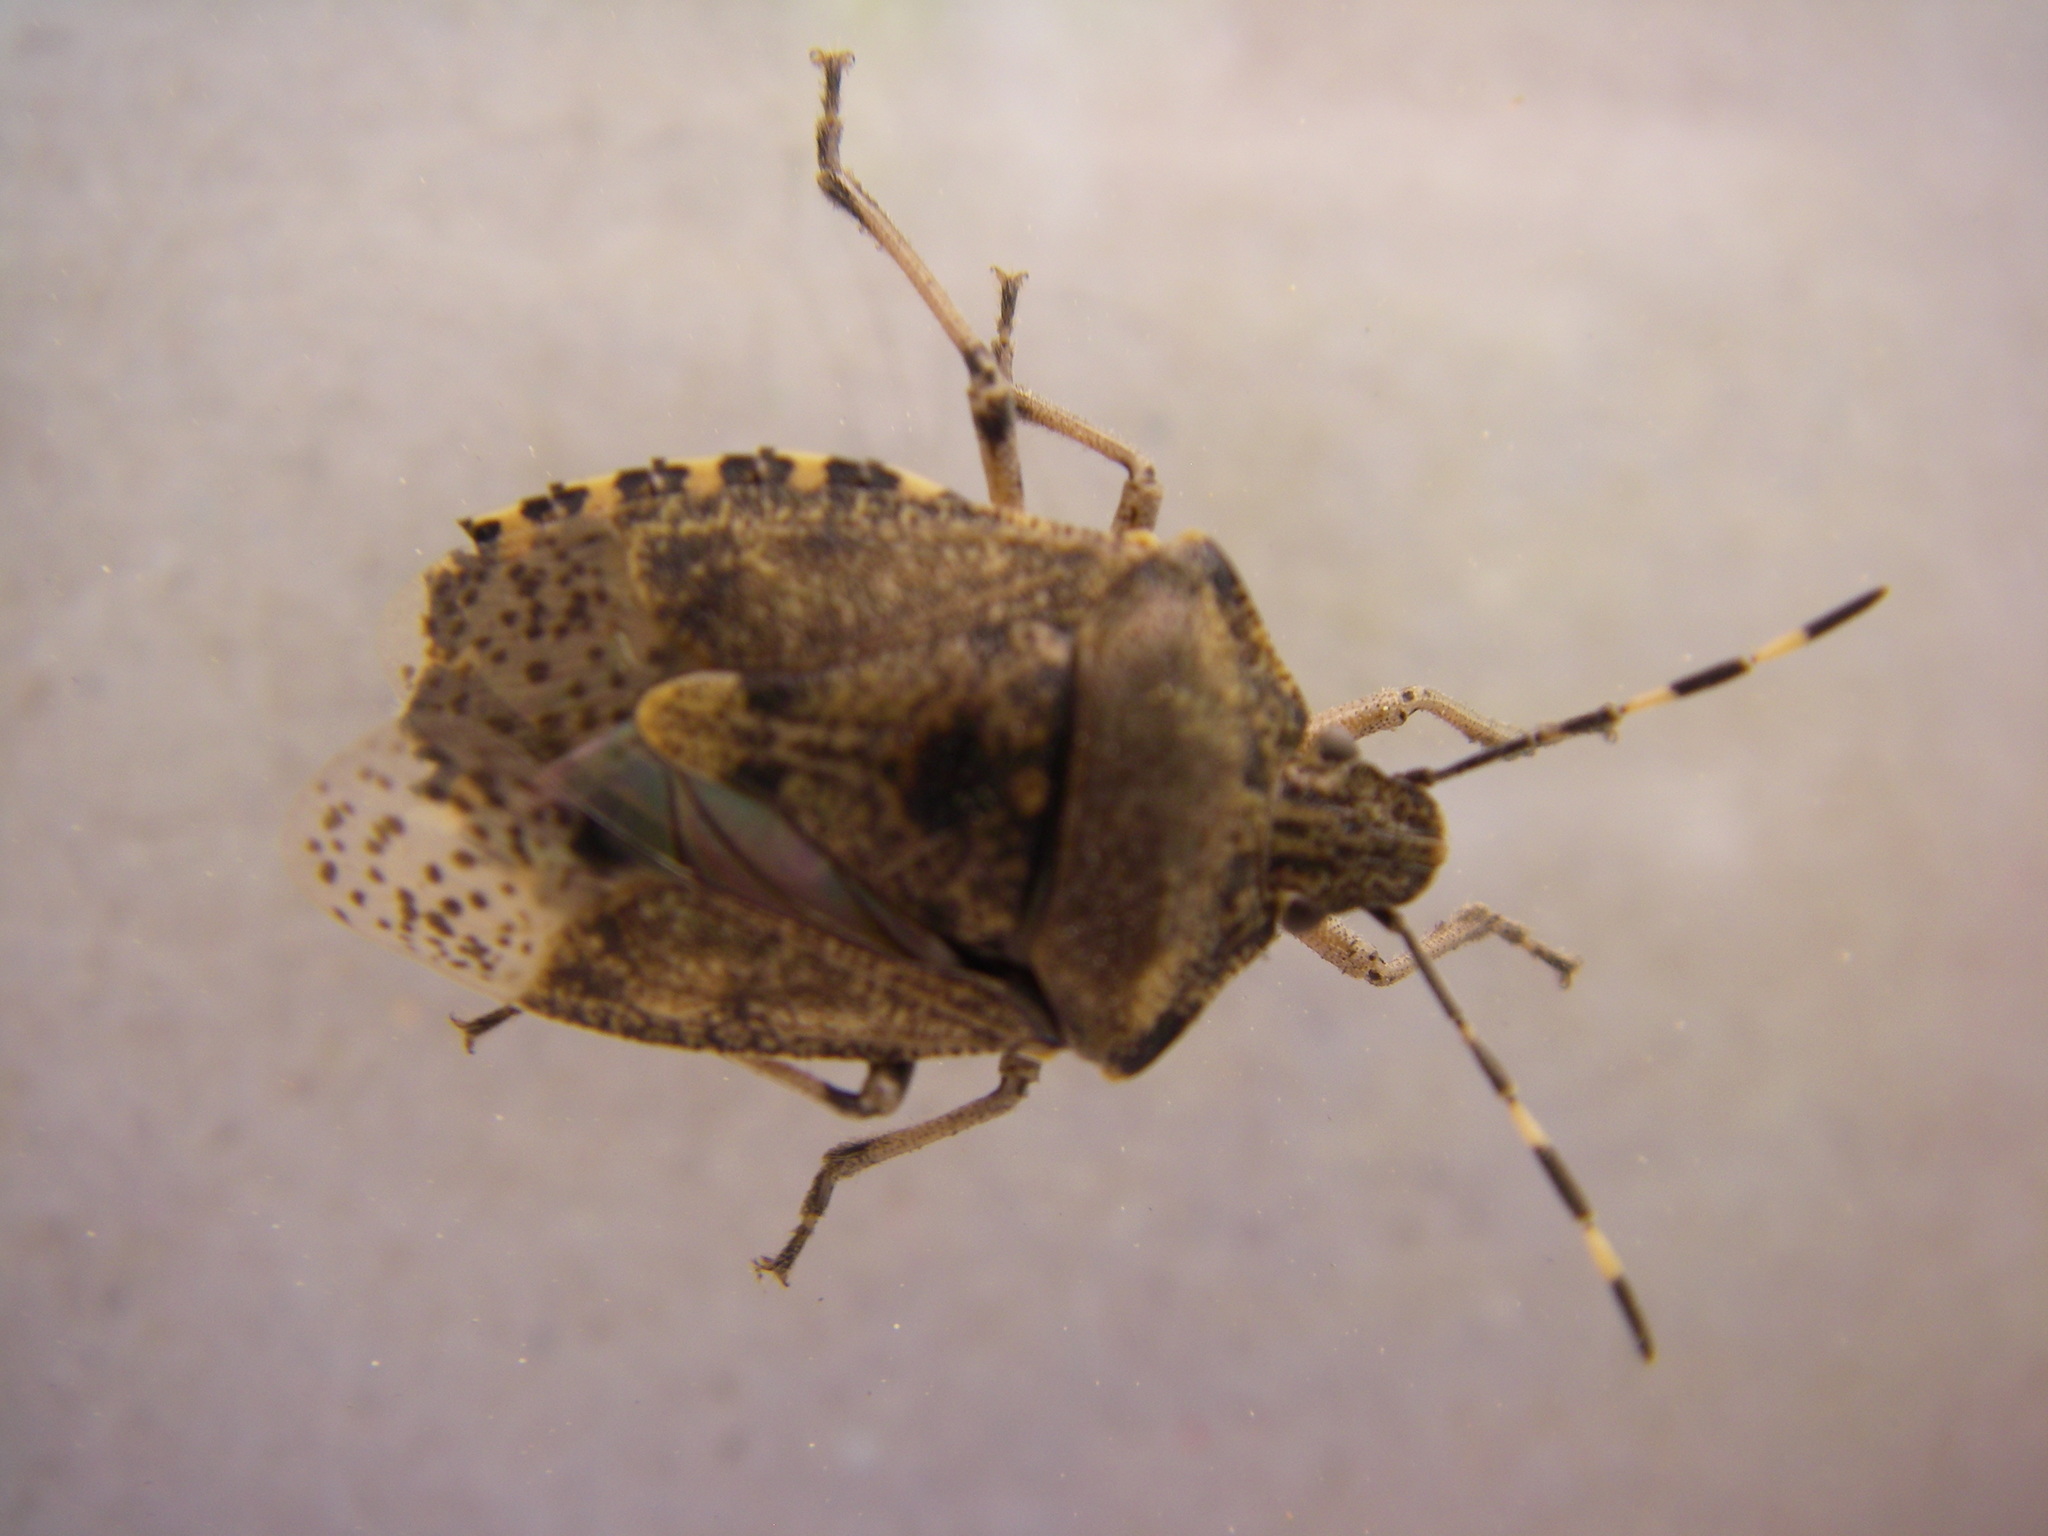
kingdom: Animalia
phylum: Arthropoda
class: Insecta
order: Hemiptera
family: Pentatomidae
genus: Rhaphigaster
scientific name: Rhaphigaster nebulosa
